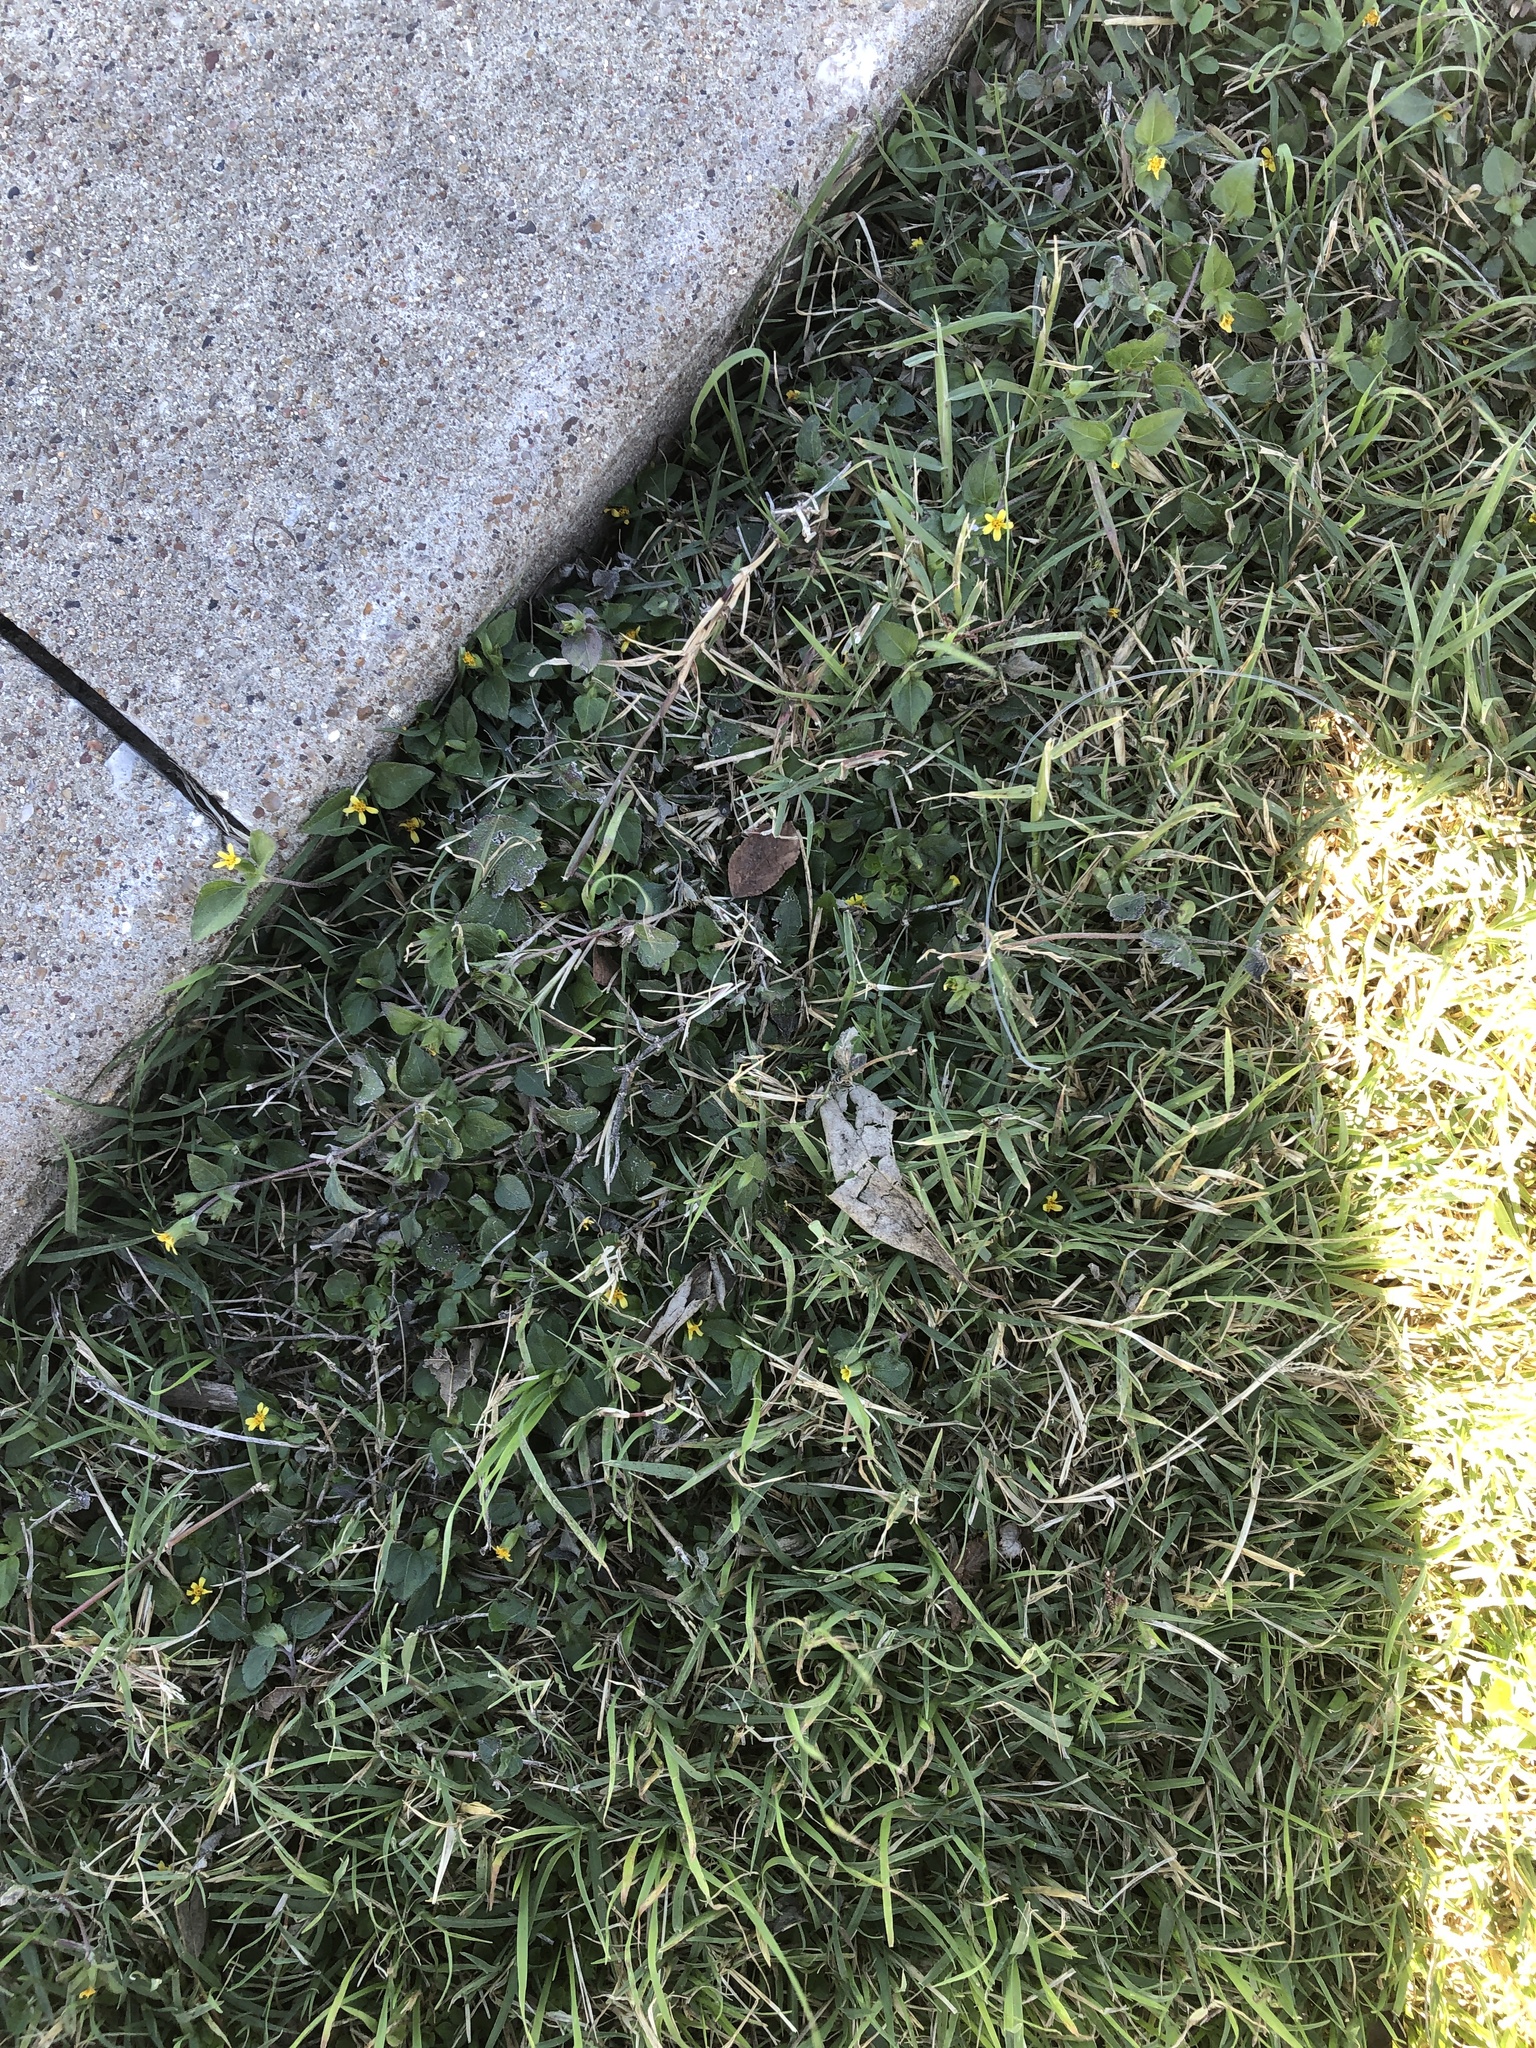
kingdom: Plantae
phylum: Tracheophyta
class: Magnoliopsida
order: Asterales
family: Asteraceae
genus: Calyptocarpus
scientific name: Calyptocarpus vialis
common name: Straggler daisy
